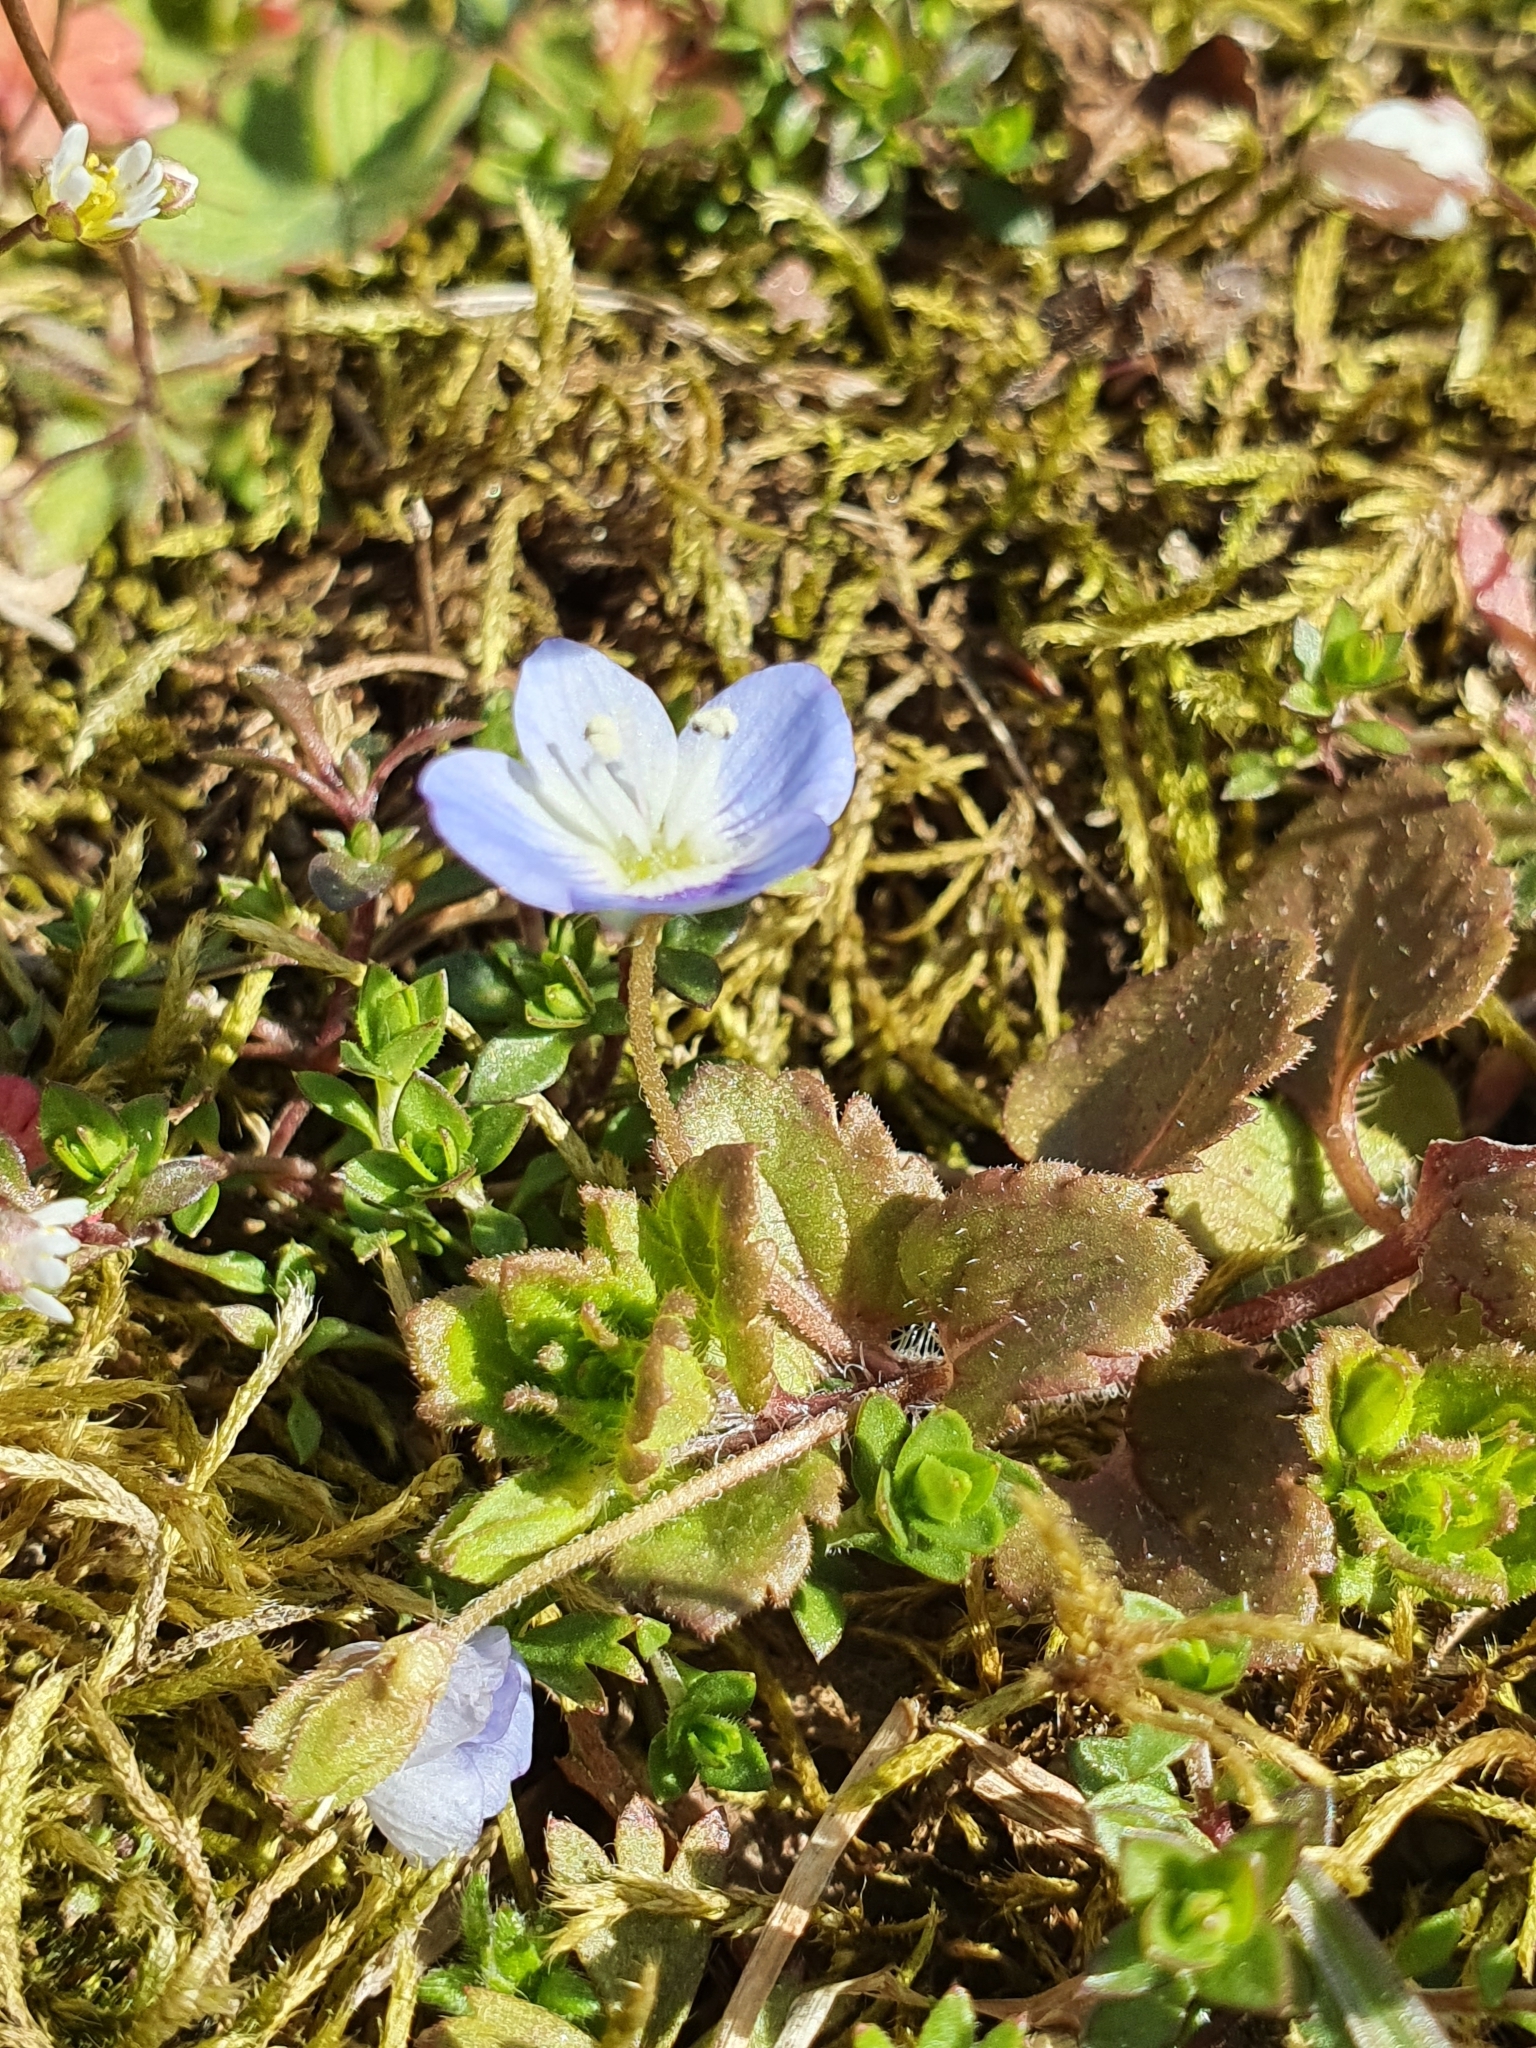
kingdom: Plantae
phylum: Tracheophyta
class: Magnoliopsida
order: Lamiales
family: Plantaginaceae
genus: Veronica
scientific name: Veronica persica
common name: Common field-speedwell
